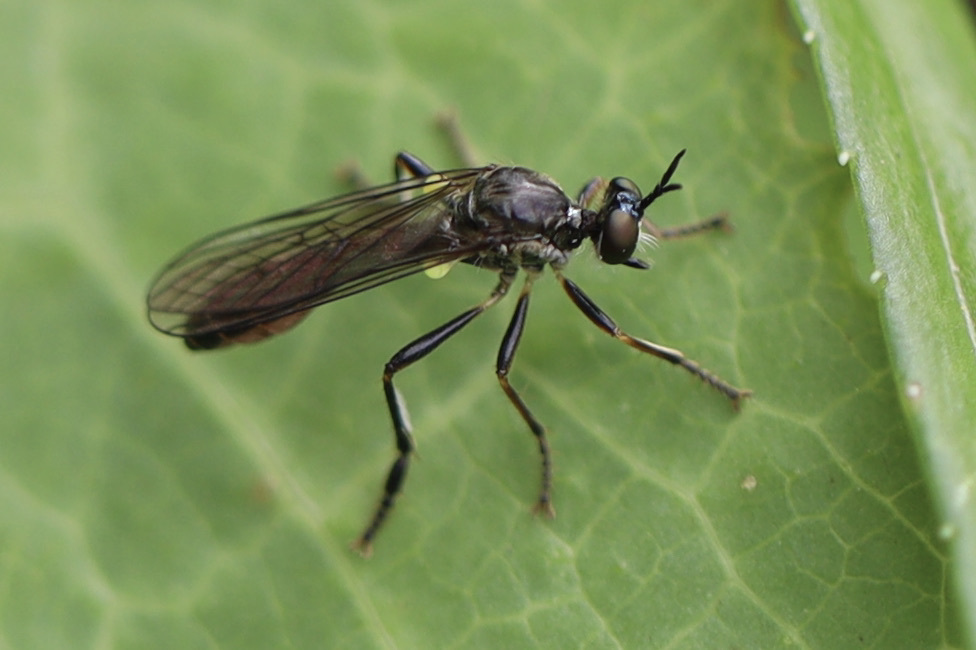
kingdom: Animalia
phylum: Arthropoda
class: Insecta
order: Diptera
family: Asilidae
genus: Dioctria
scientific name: Dioctria hyalipennis
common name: Stripe-legged robberfly
